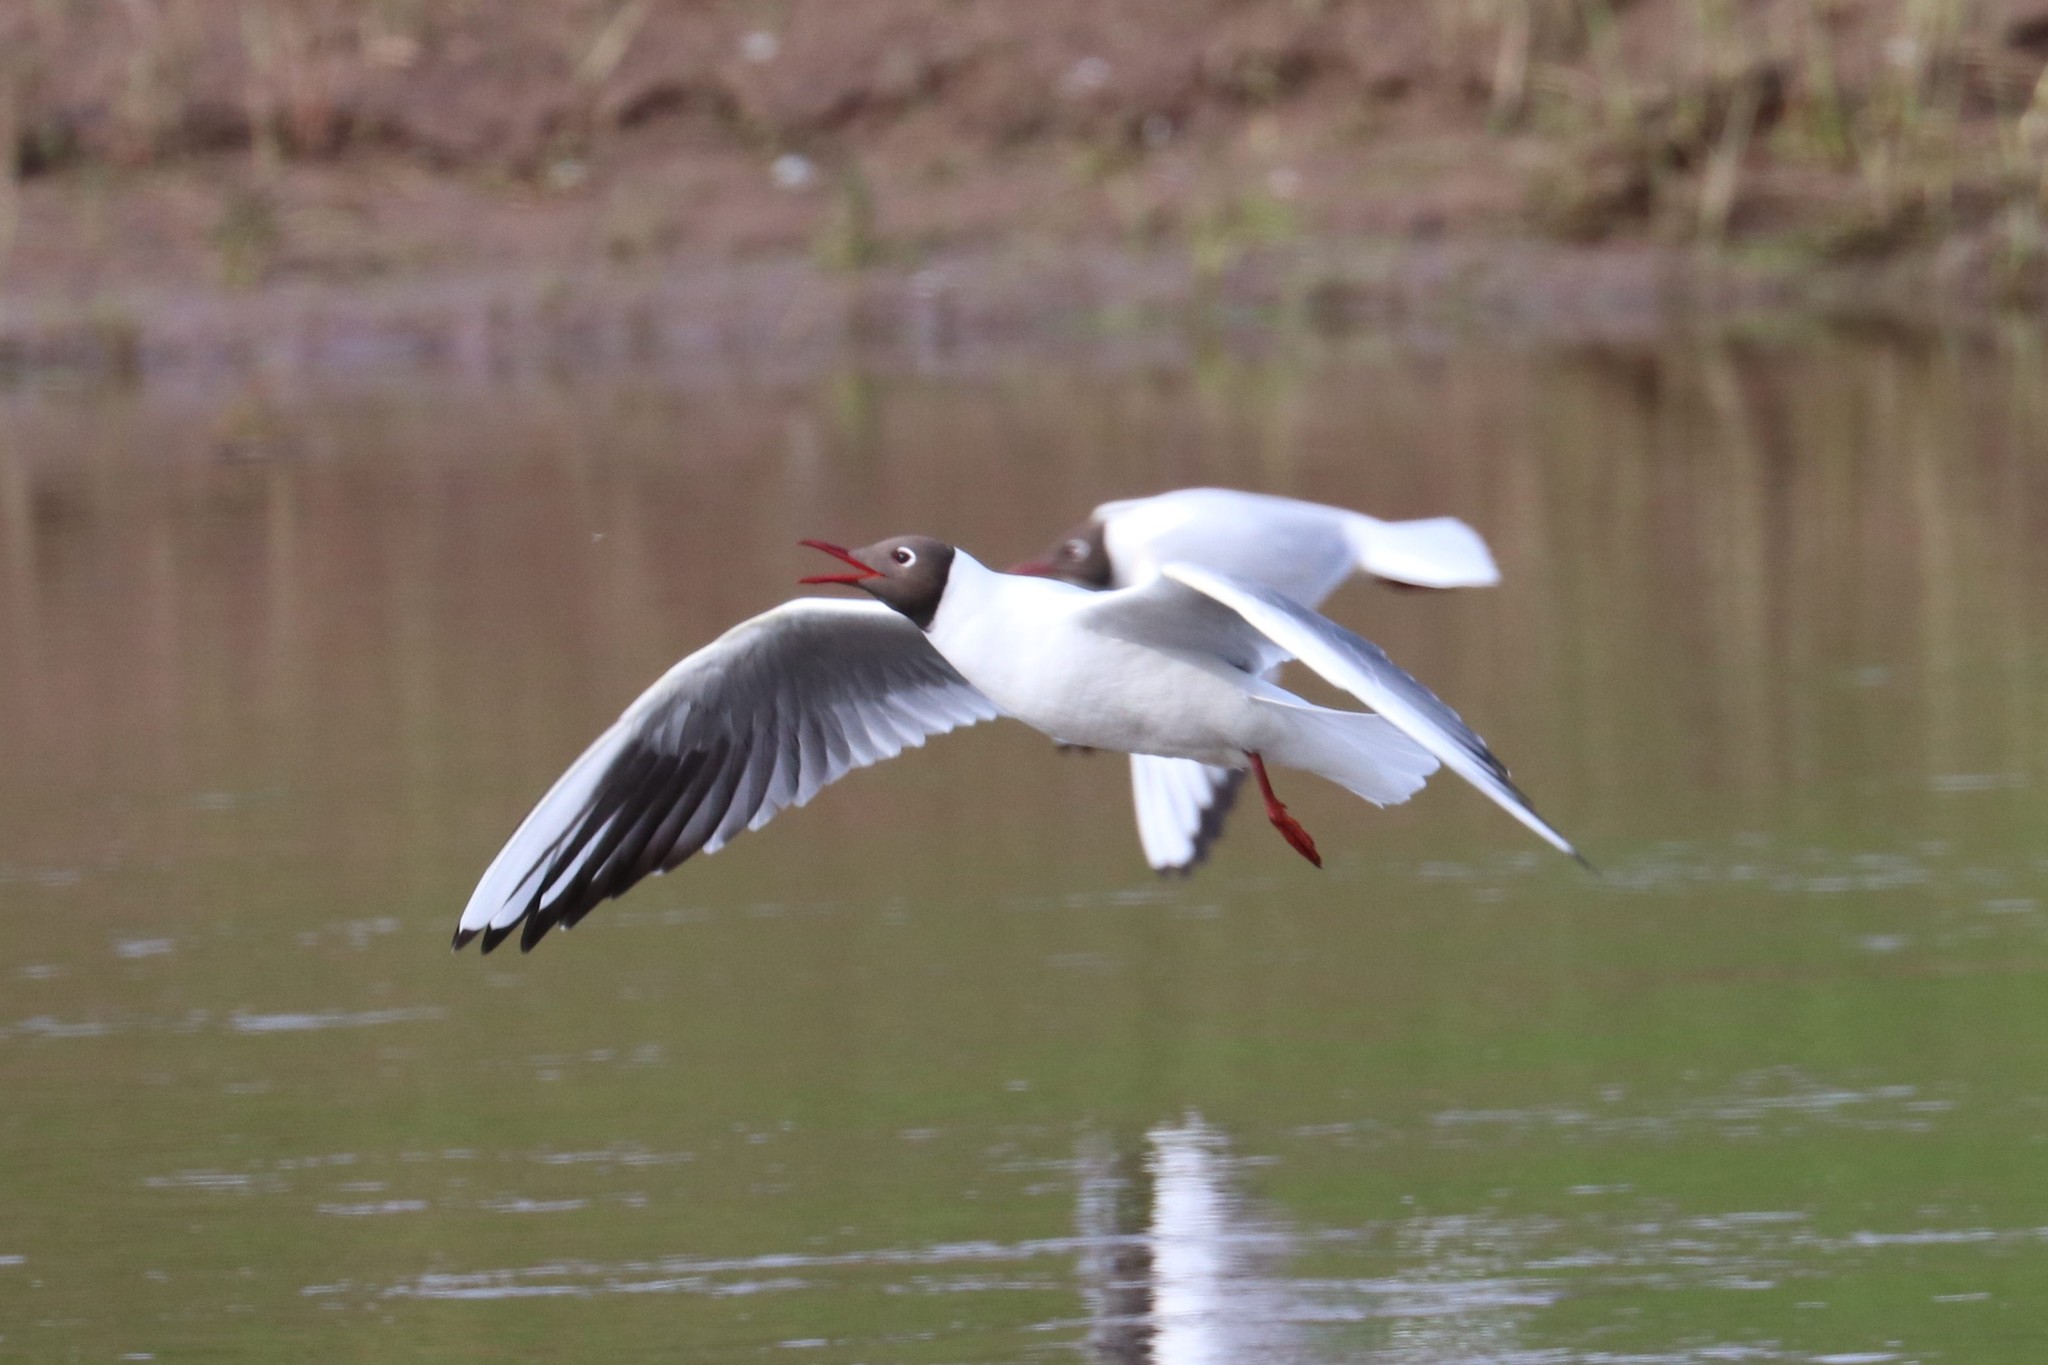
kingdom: Animalia
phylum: Chordata
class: Aves
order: Charadriiformes
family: Laridae
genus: Chroicocephalus
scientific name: Chroicocephalus ridibundus
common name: Black-headed gull
